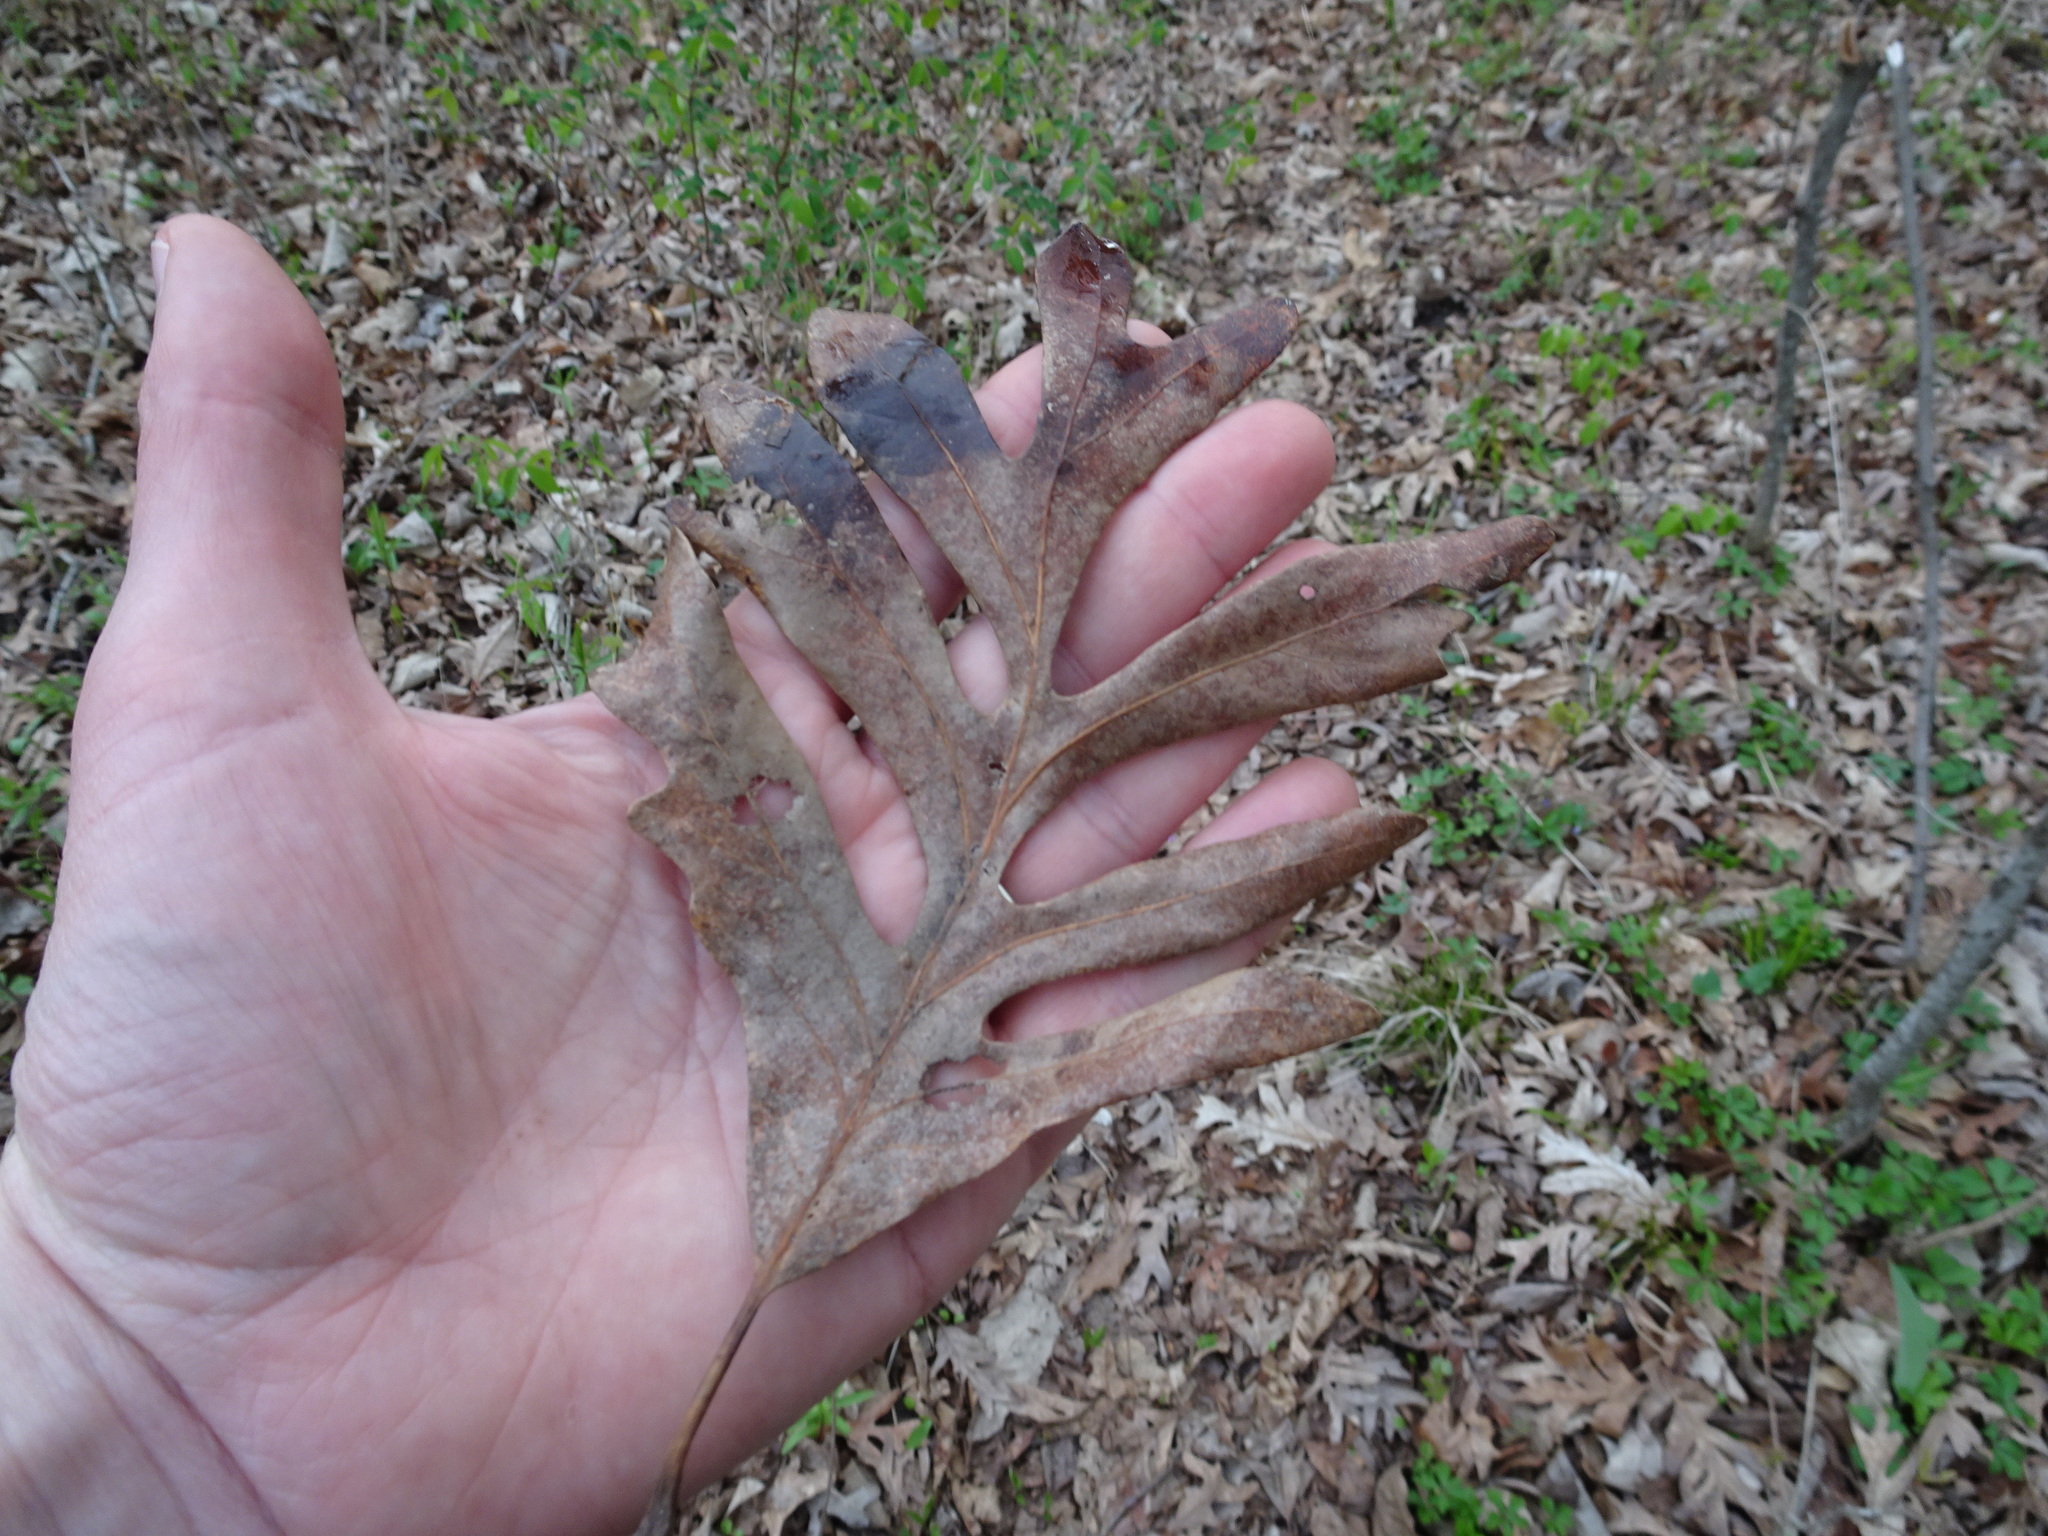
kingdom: Plantae
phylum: Tracheophyta
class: Magnoliopsida
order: Fagales
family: Fagaceae
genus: Quercus
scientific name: Quercus alba
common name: White oak
